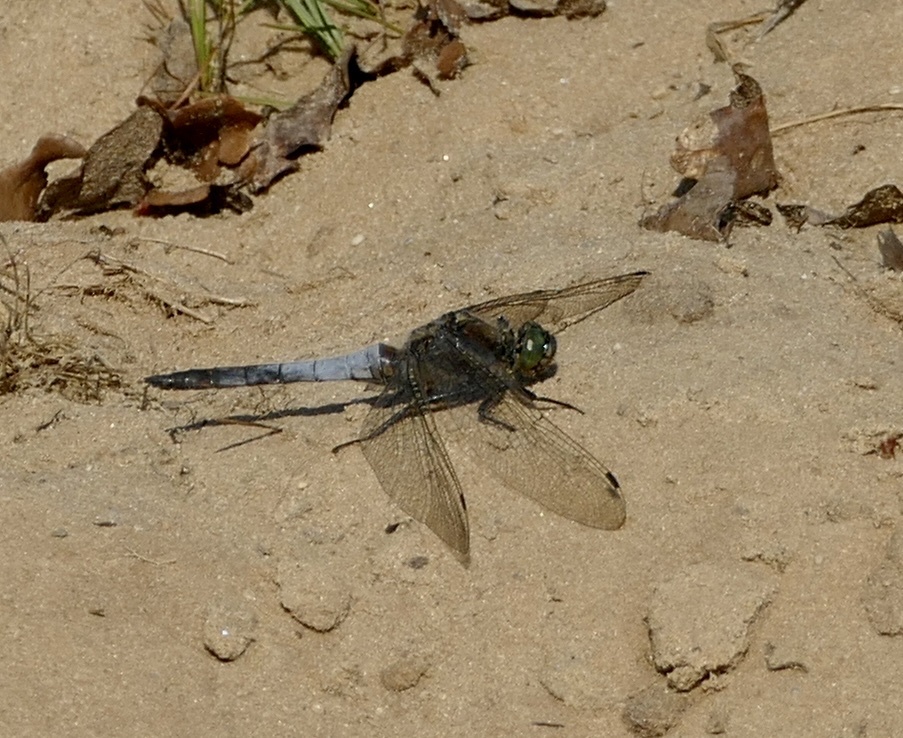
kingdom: Animalia
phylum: Arthropoda
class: Insecta
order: Odonata
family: Libellulidae
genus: Orthetrum
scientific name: Orthetrum cancellatum
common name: Black-tailed skimmer
